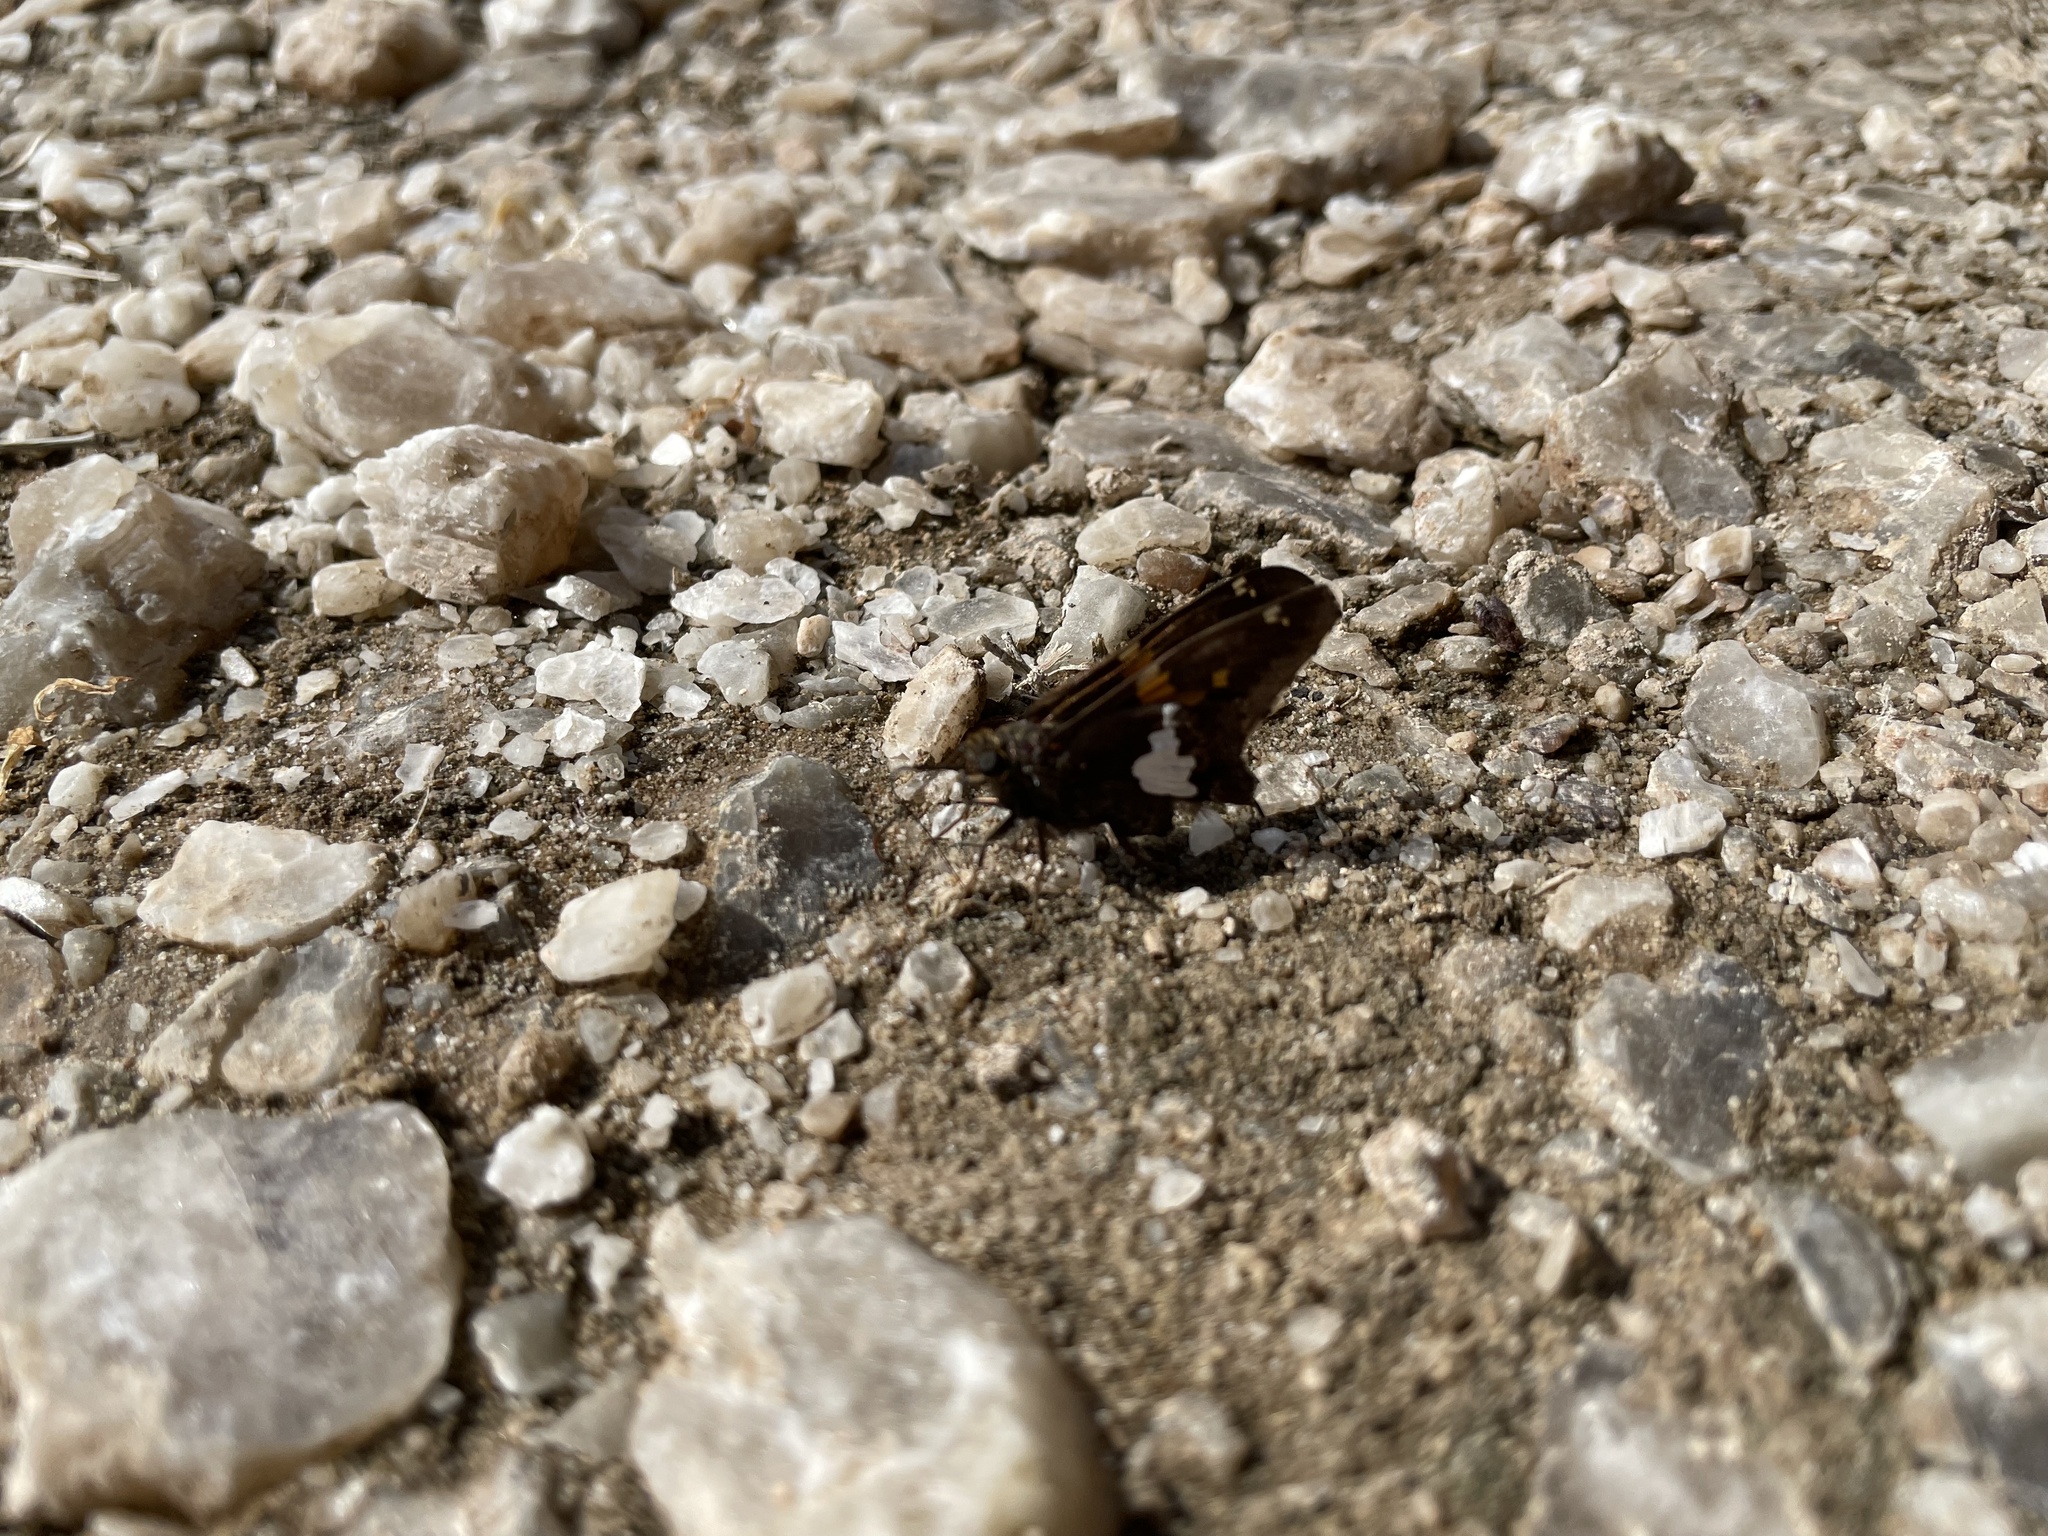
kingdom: Animalia
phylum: Arthropoda
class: Insecta
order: Lepidoptera
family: Hesperiidae
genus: Epargyreus
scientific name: Epargyreus clarus
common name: Silver-spotted skipper
